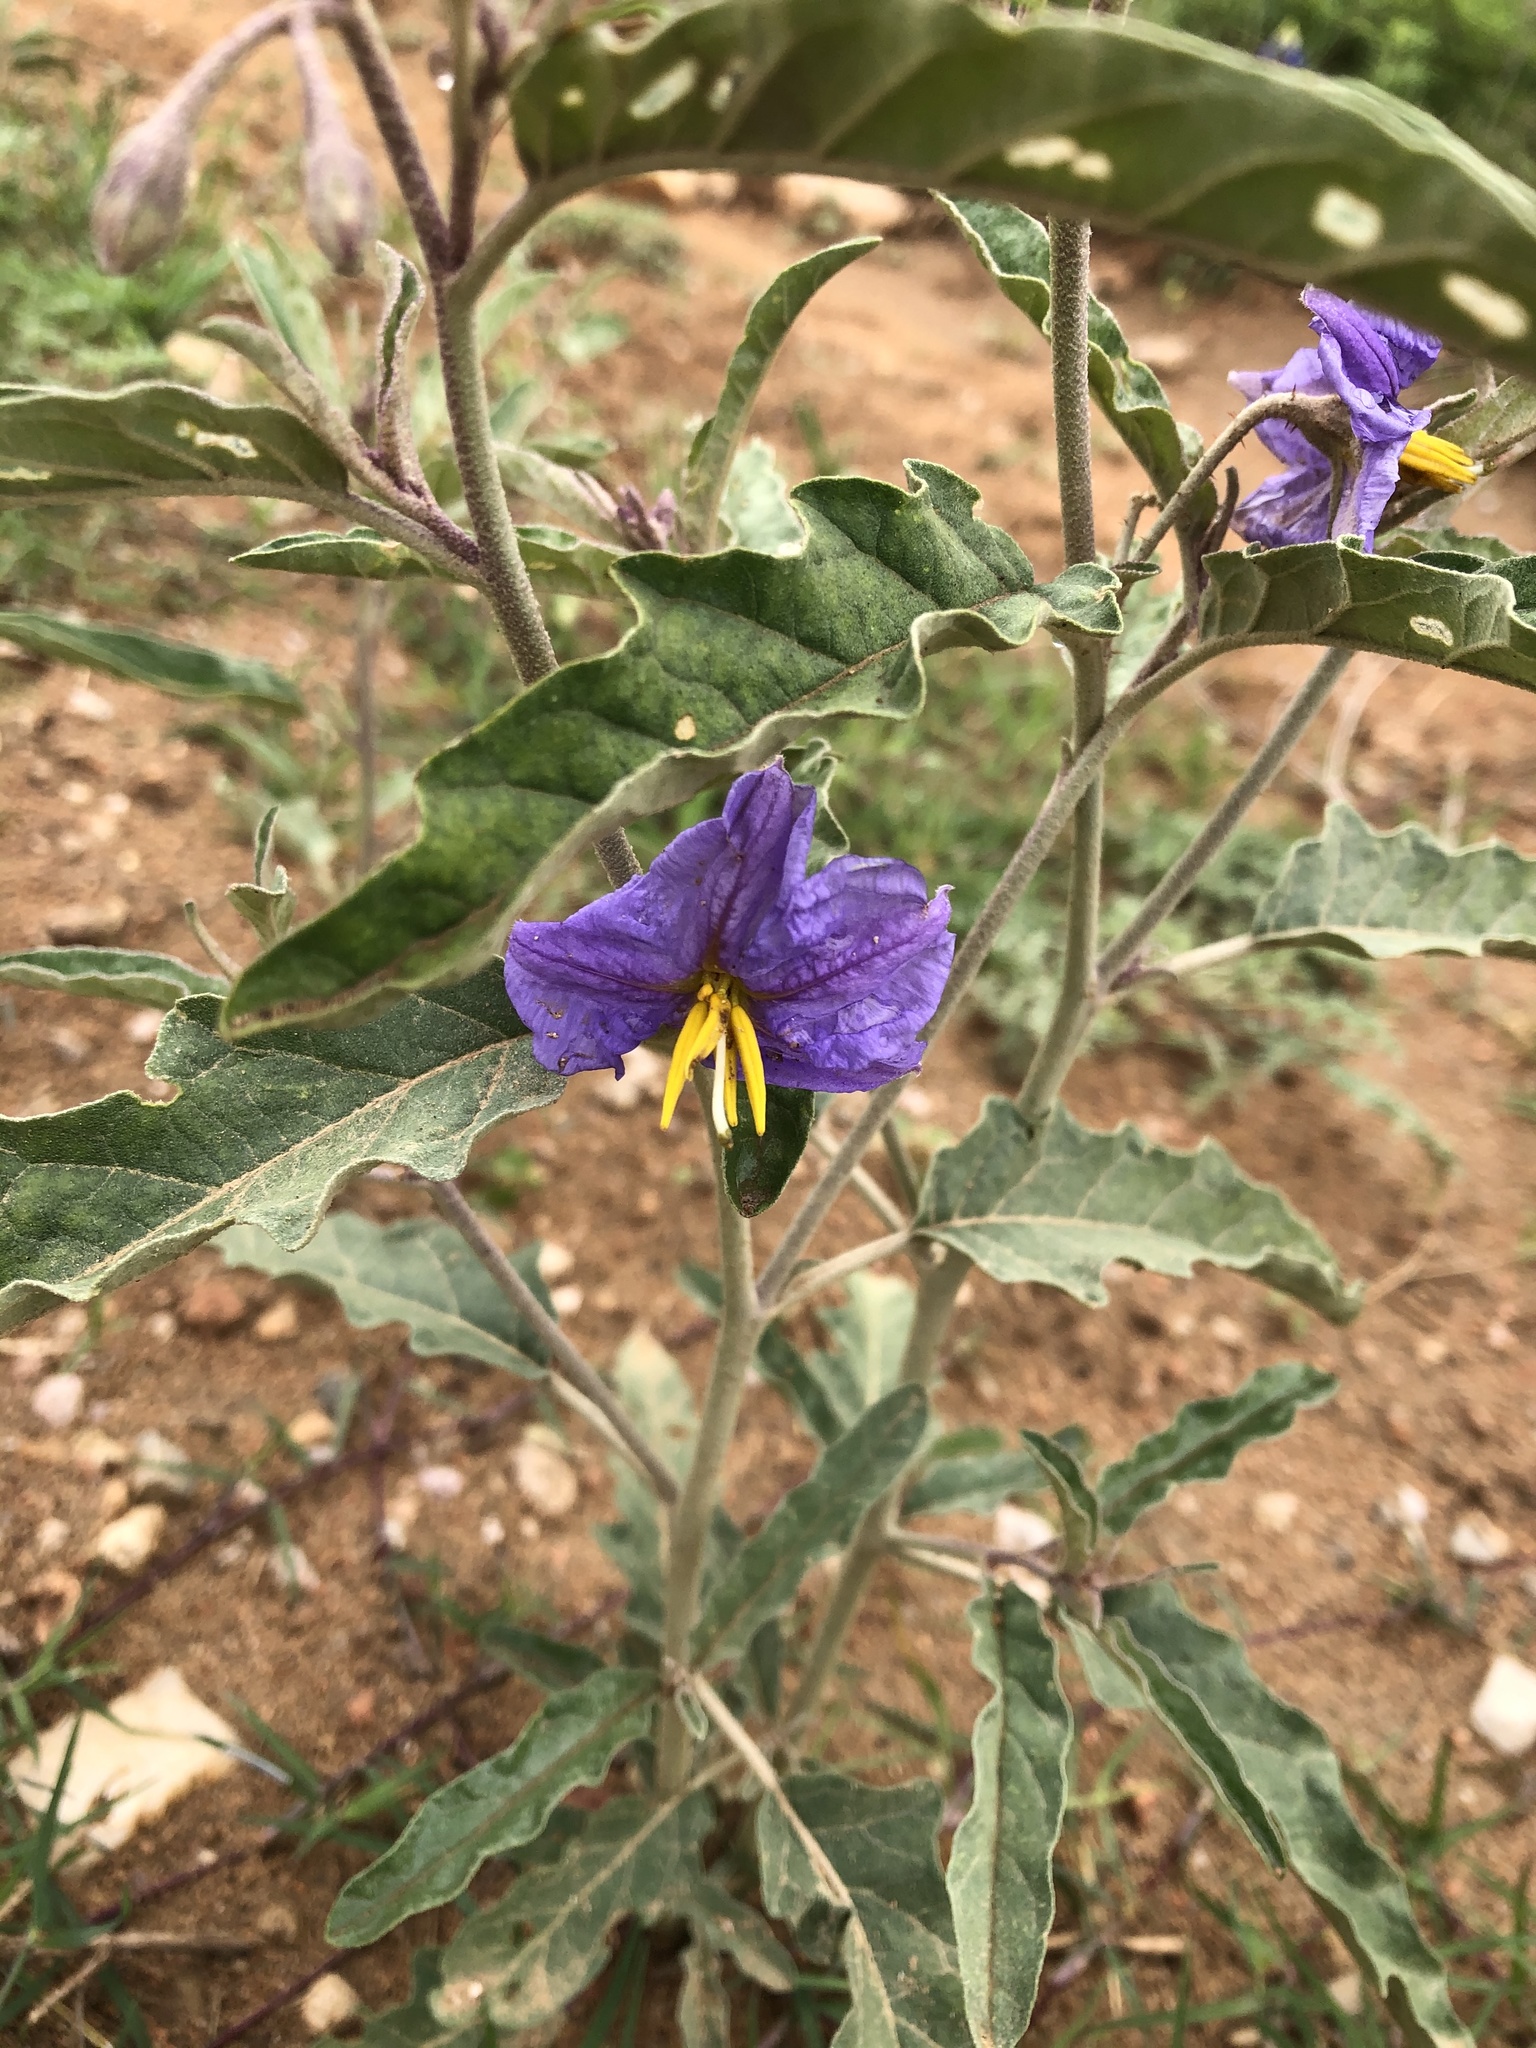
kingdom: Plantae
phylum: Tracheophyta
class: Magnoliopsida
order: Solanales
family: Solanaceae
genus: Solanum
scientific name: Solanum elaeagnifolium
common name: Silverleaf nightshade
